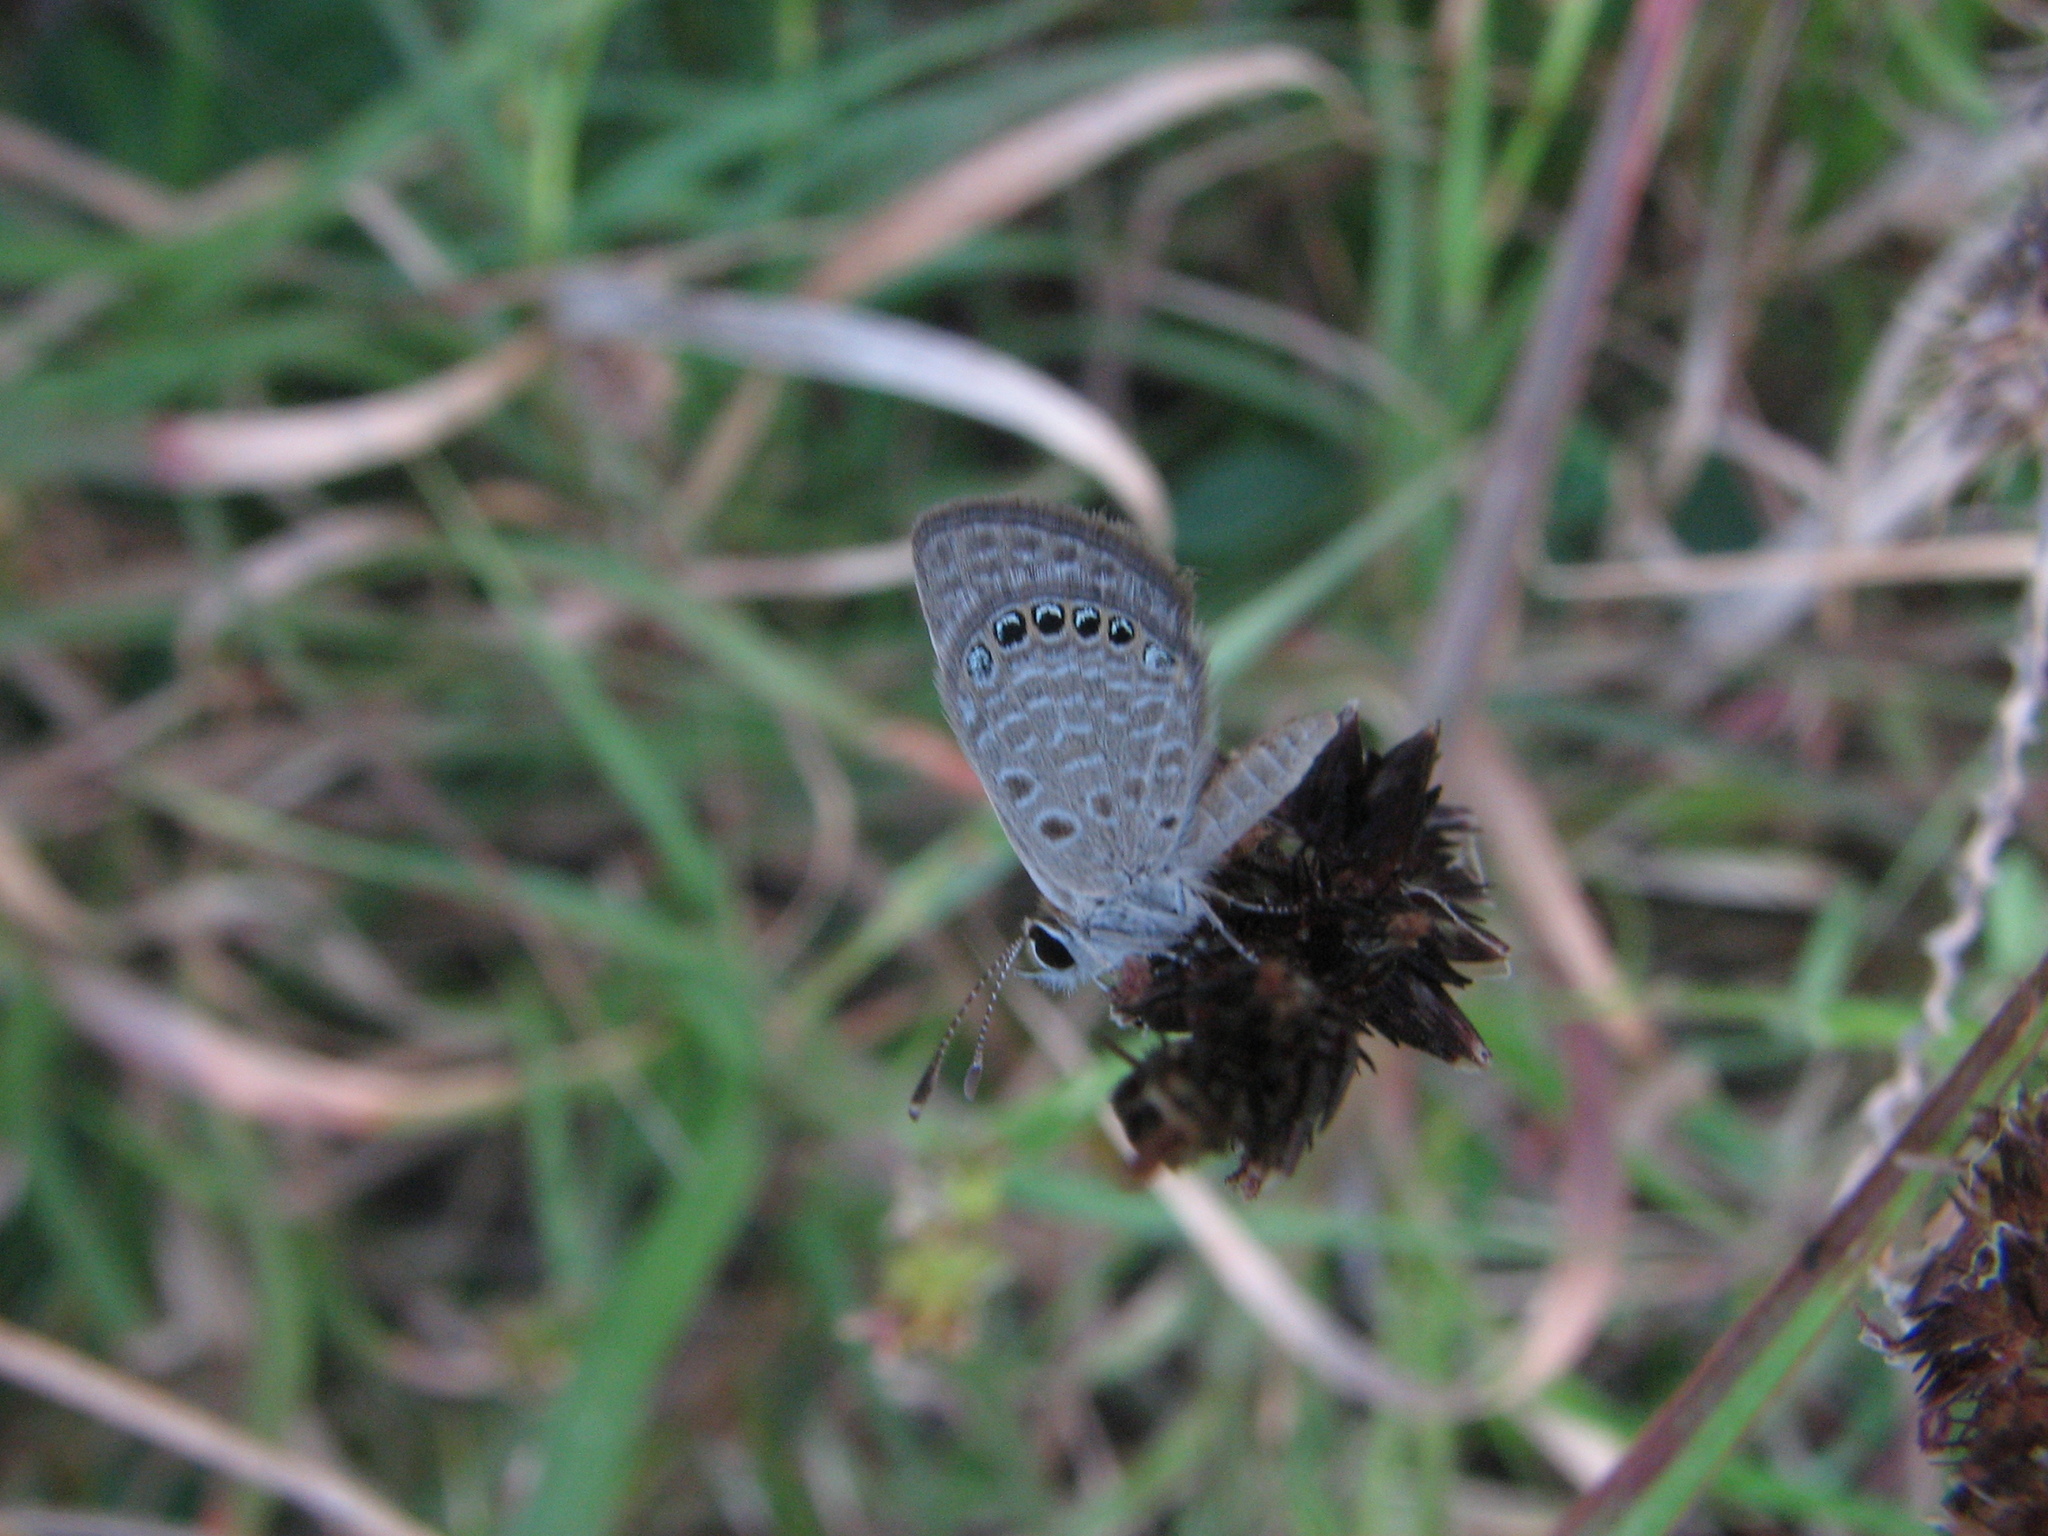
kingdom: Animalia
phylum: Arthropoda
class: Insecta
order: Lepidoptera
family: Lycaenidae
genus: Freyeria
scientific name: Freyeria putli
